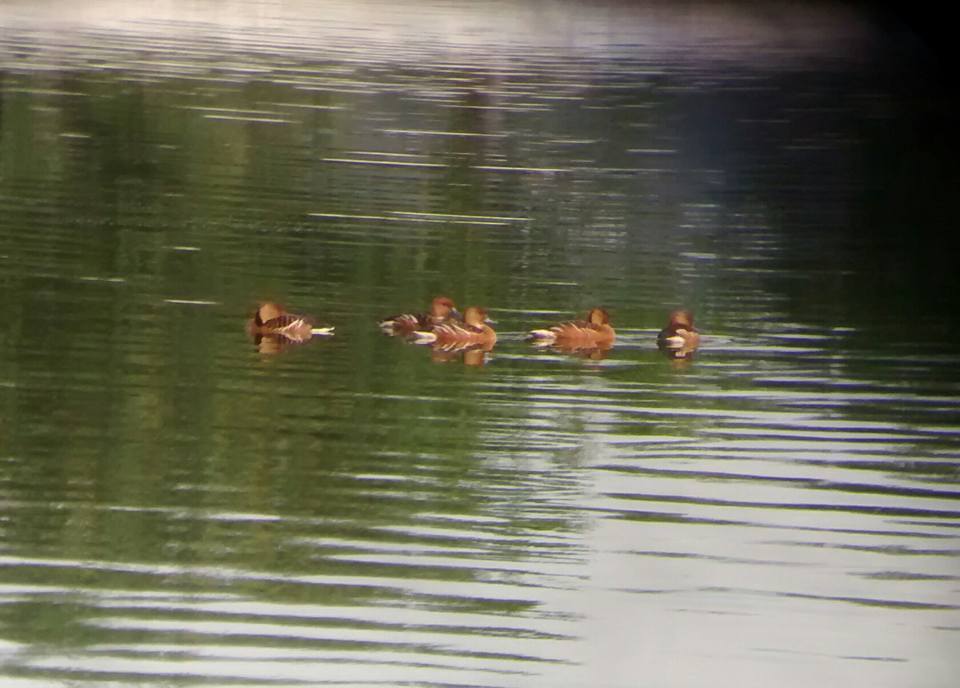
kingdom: Animalia
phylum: Chordata
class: Aves
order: Anseriformes
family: Anatidae
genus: Dendrocygna
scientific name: Dendrocygna bicolor
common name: Fulvous whistling duck
